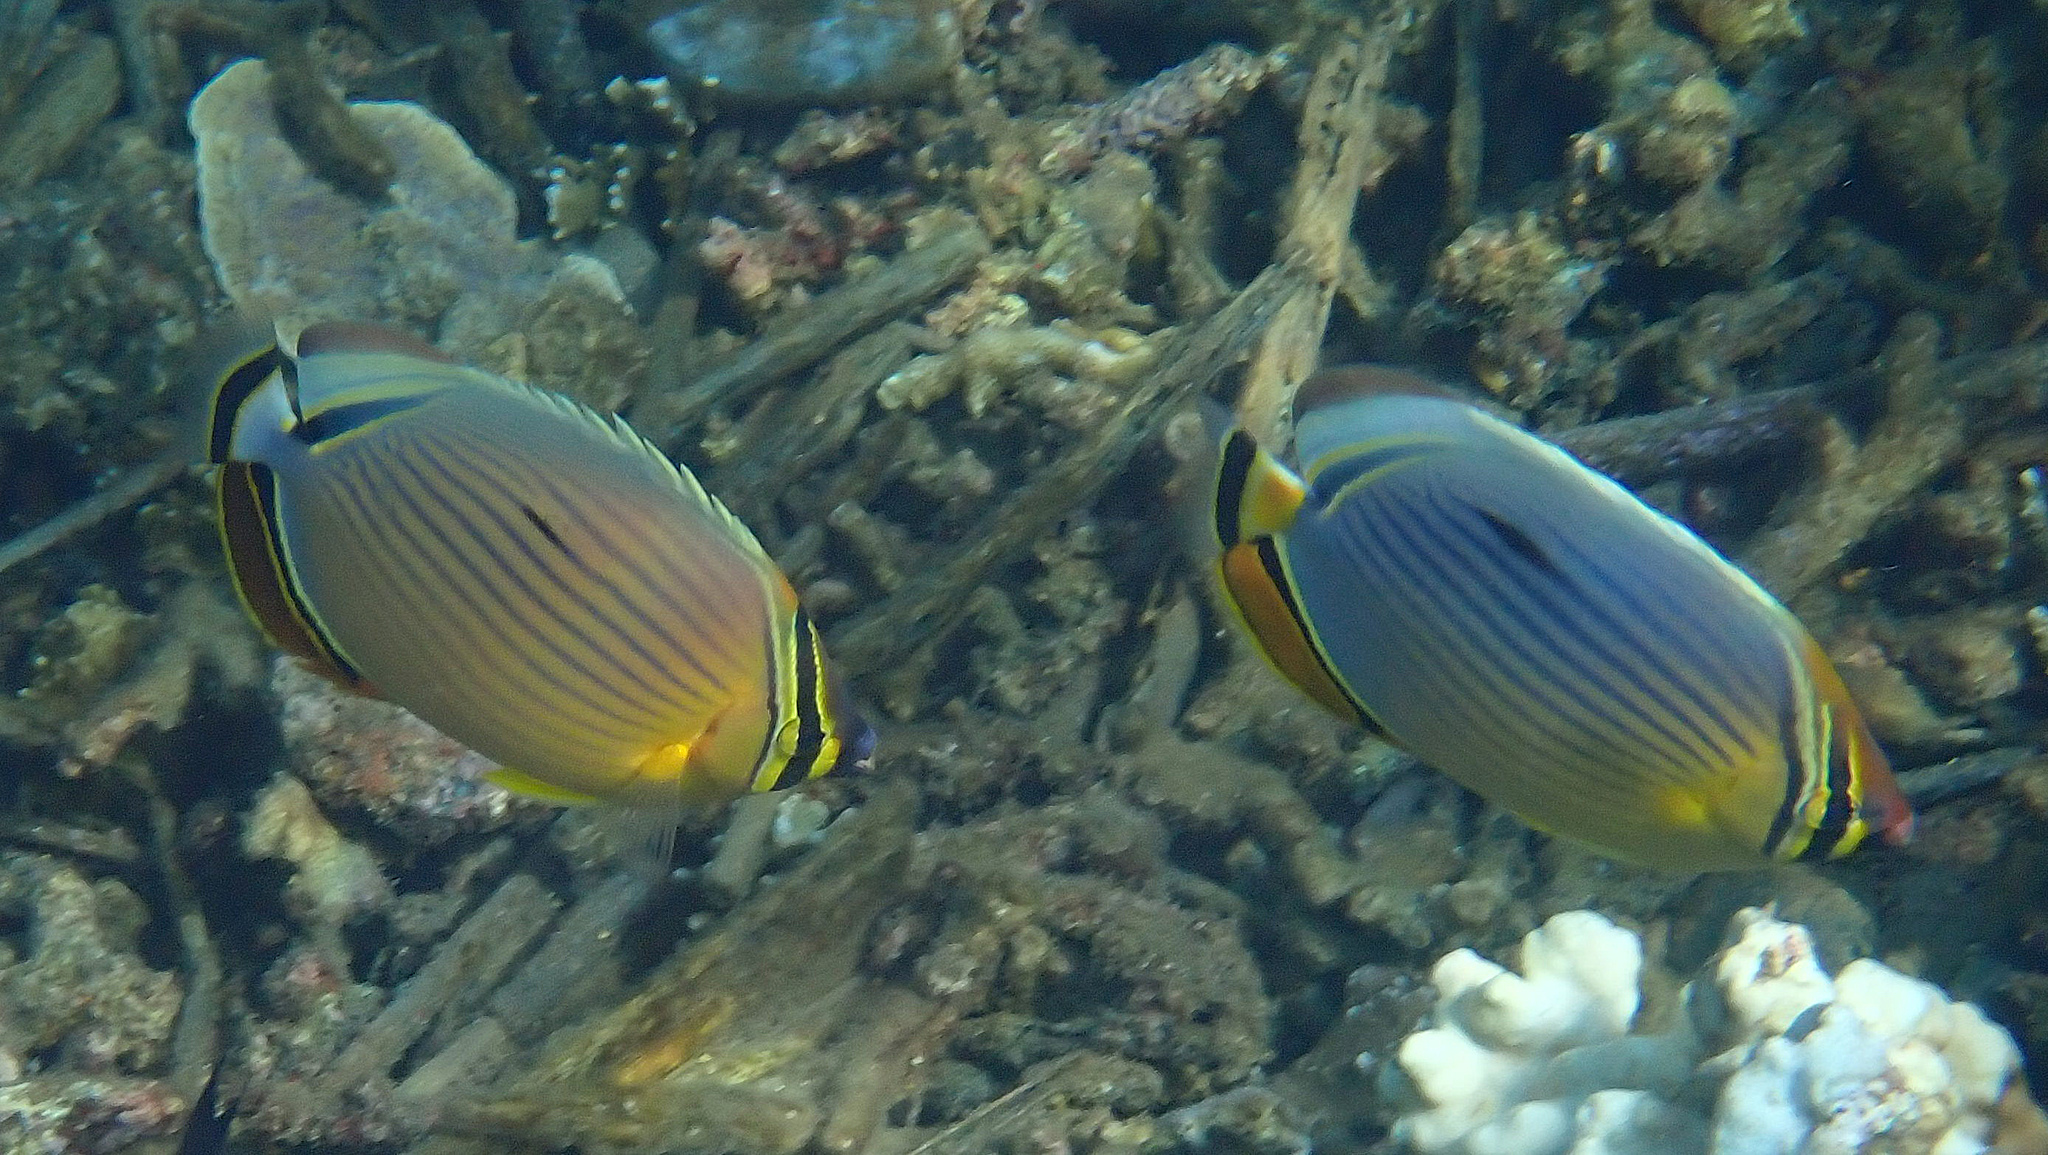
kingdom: Animalia
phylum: Chordata
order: Perciformes
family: Chaetodontidae
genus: Chaetodon
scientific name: Chaetodon lunulatus
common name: Redfin butterflyfish
